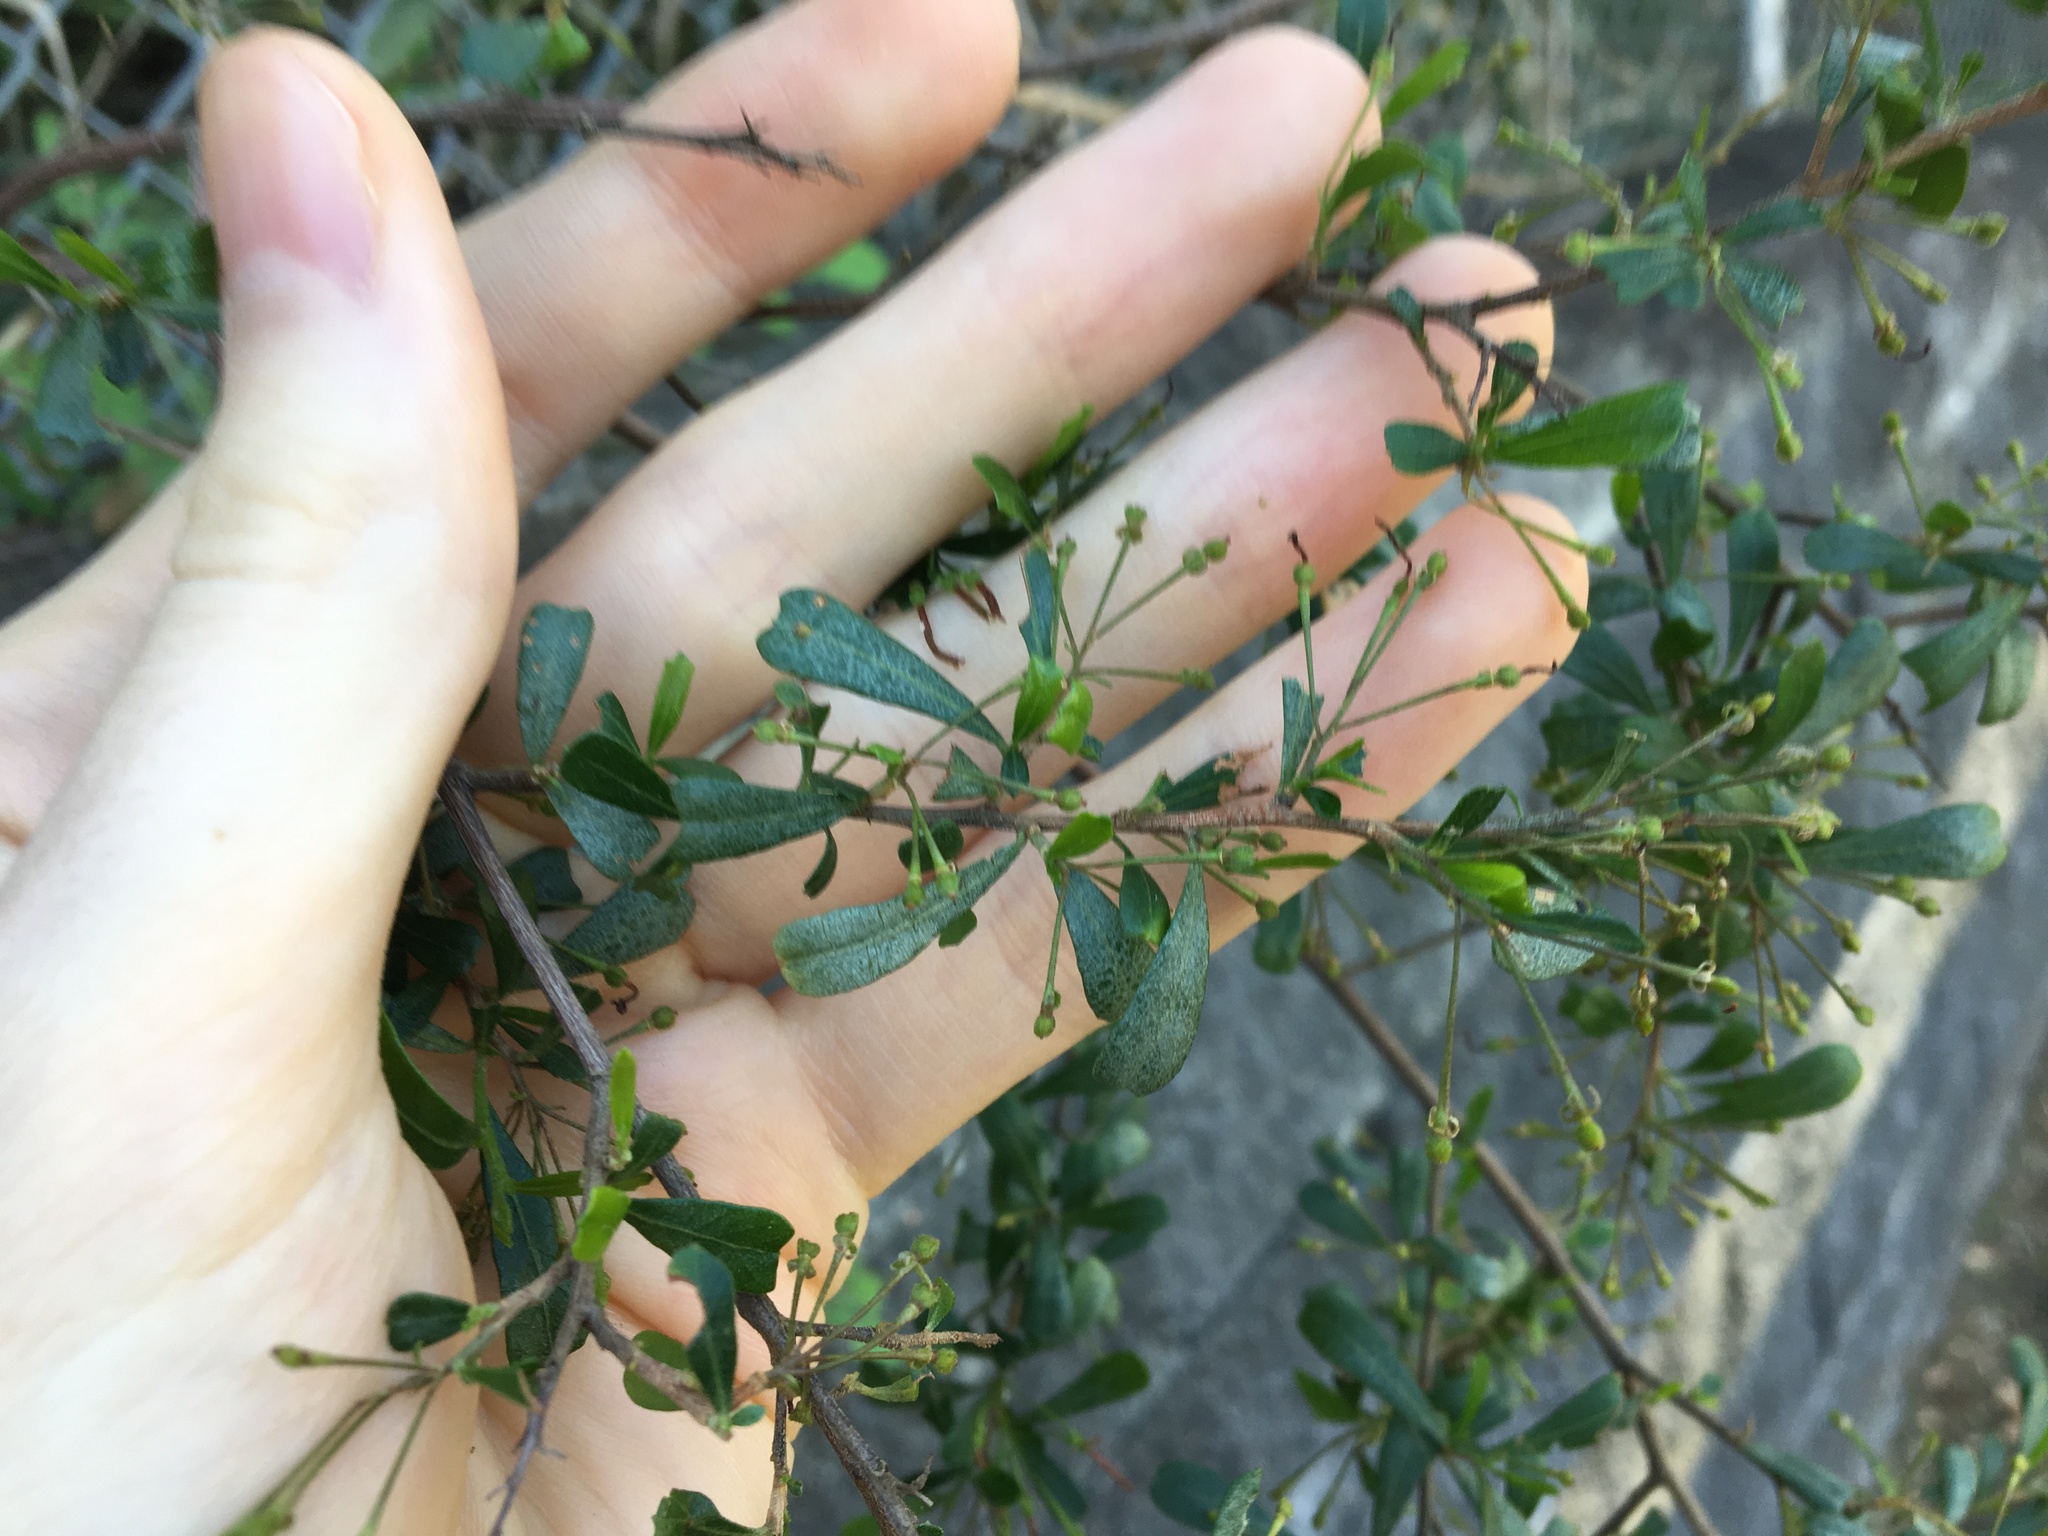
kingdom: Plantae
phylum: Tracheophyta
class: Magnoliopsida
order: Sapindales
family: Sapindaceae
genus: Dodonaea
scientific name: Dodonaea viscosa
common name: Hopbush
